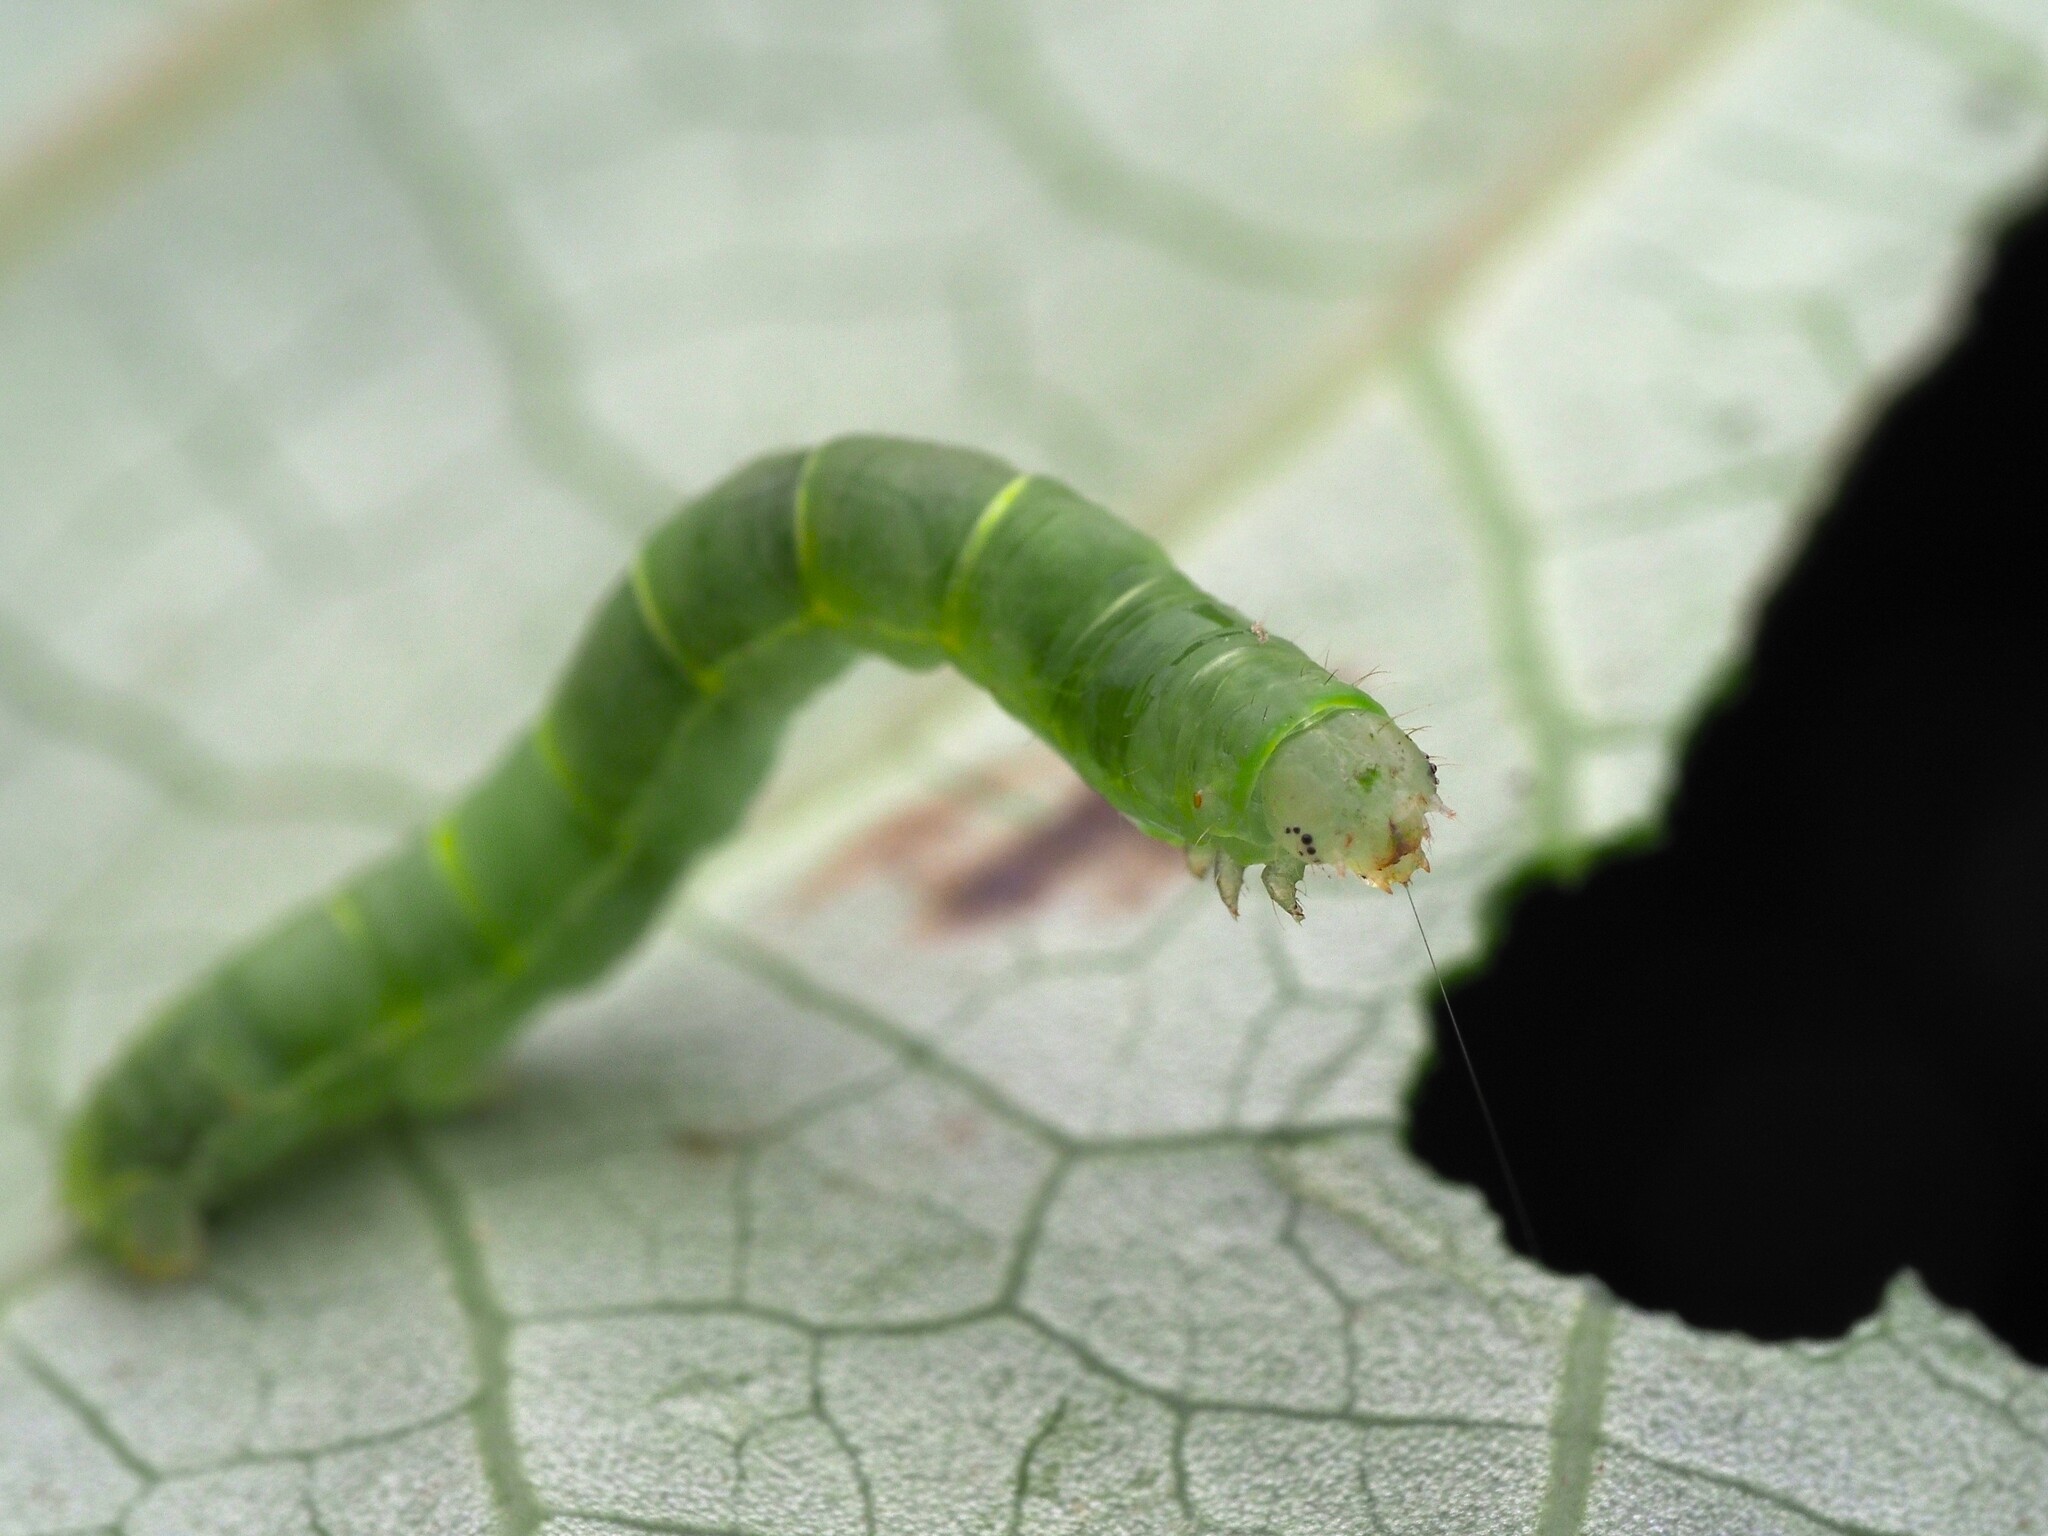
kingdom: Animalia
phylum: Arthropoda
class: Insecta
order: Lepidoptera
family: Geometridae
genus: Cleora
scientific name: Cleora scriptaria
